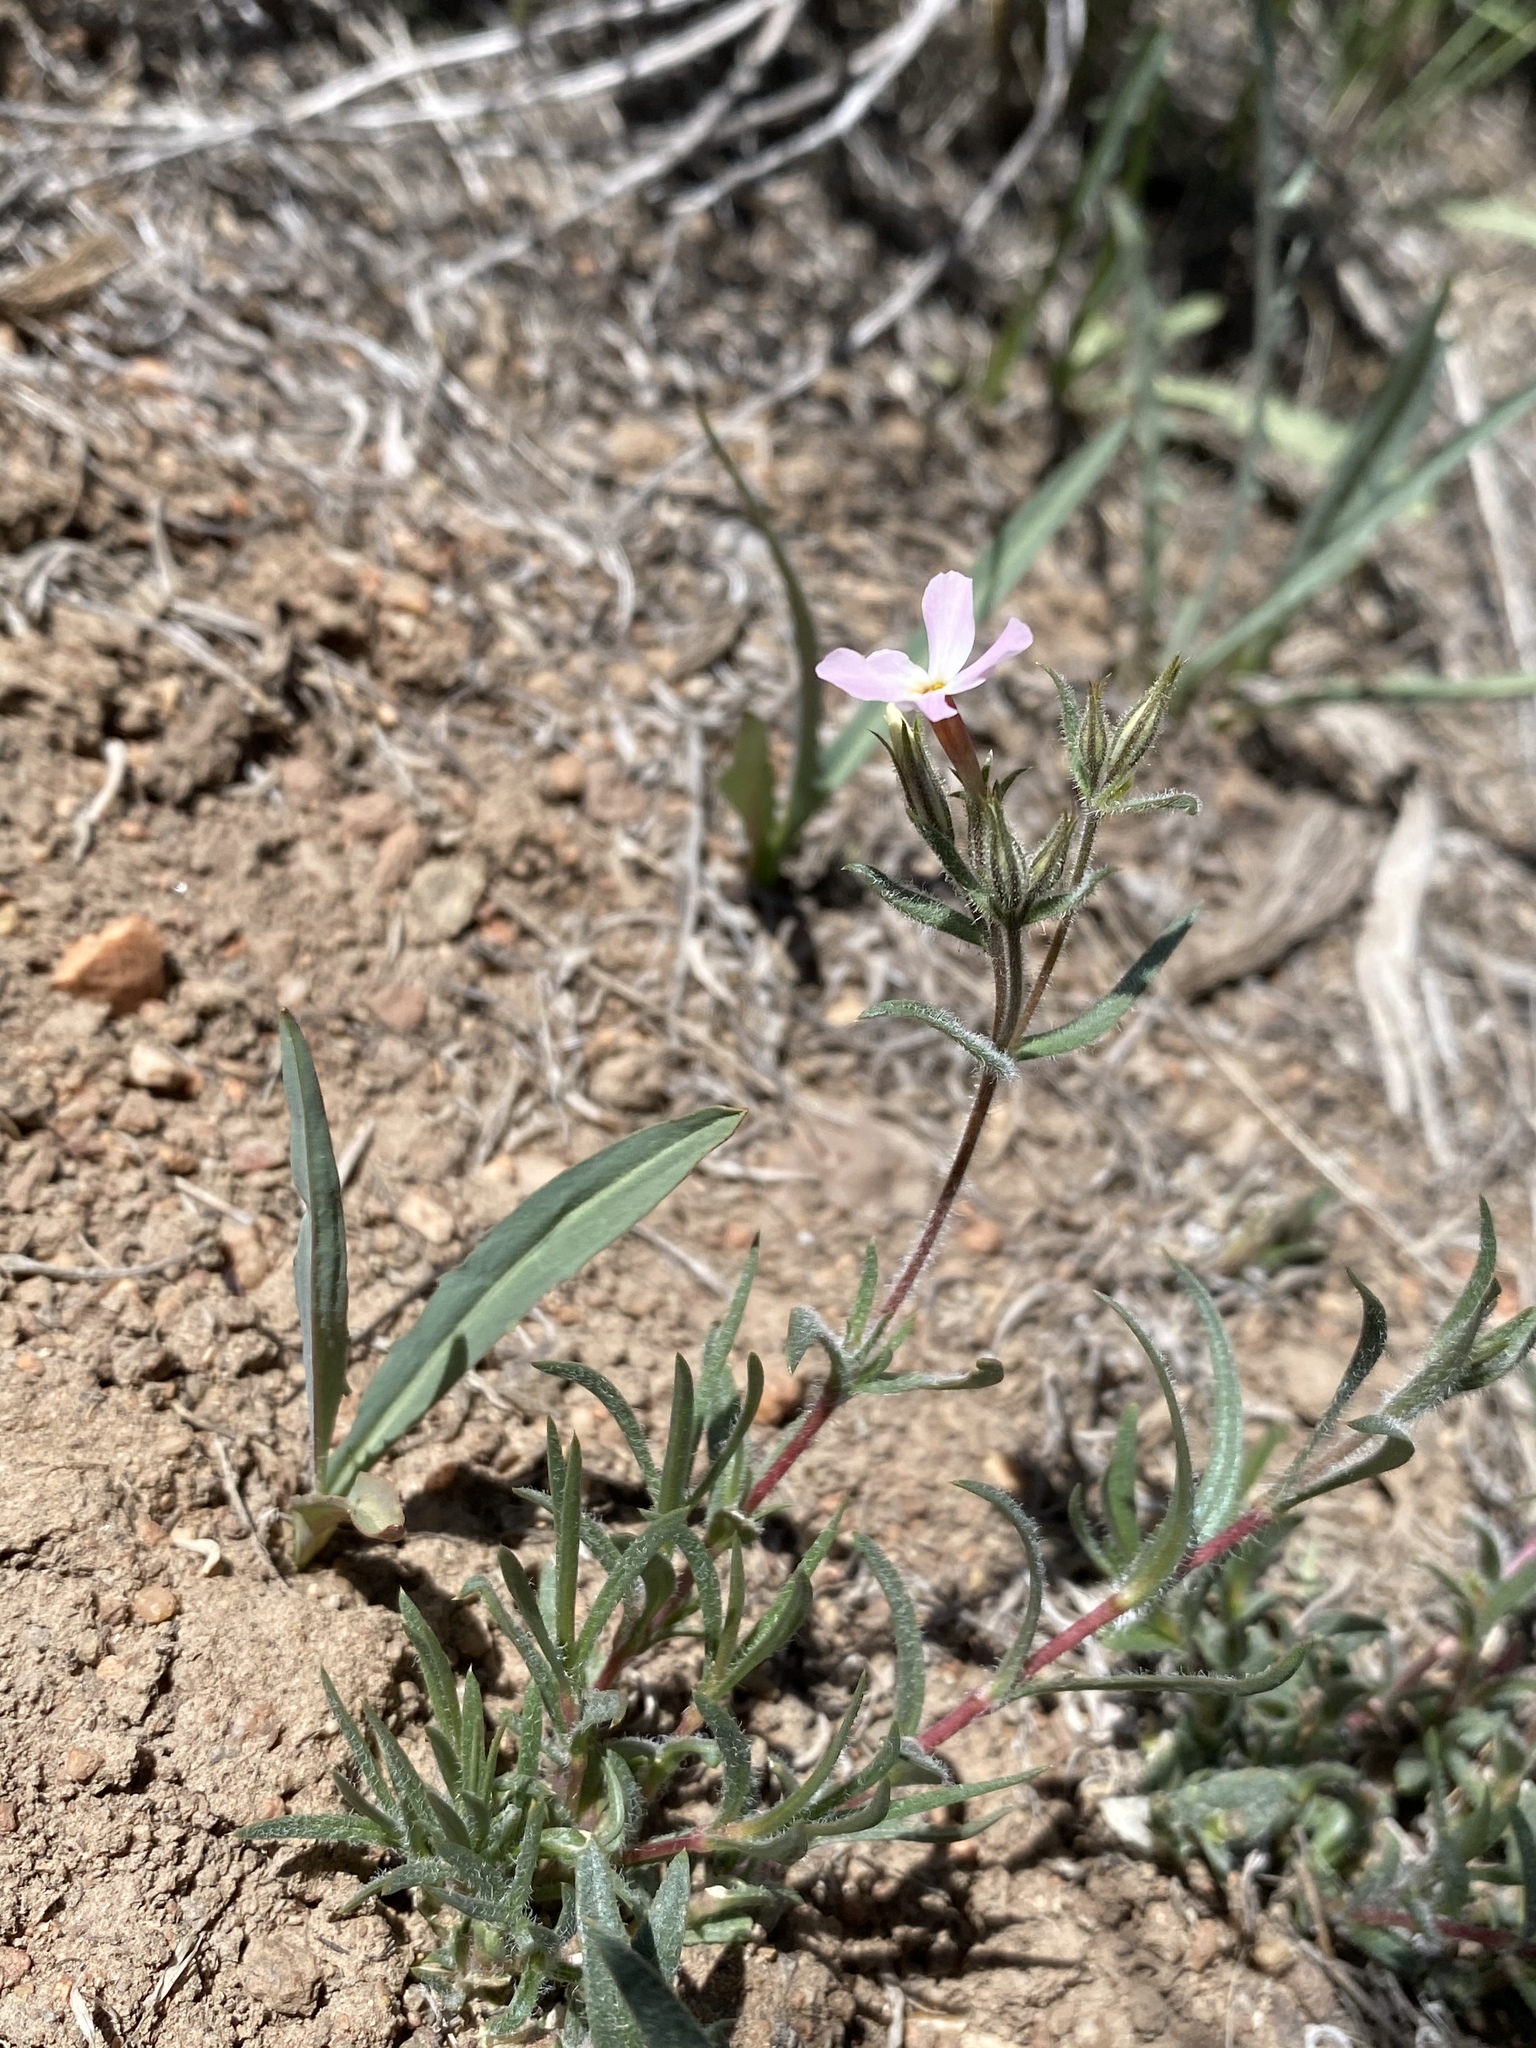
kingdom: Plantae
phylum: Tracheophyta
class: Magnoliopsida
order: Ericales
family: Polemoniaceae
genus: Phlox
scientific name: Phlox longifolia
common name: Longleaf phlox
